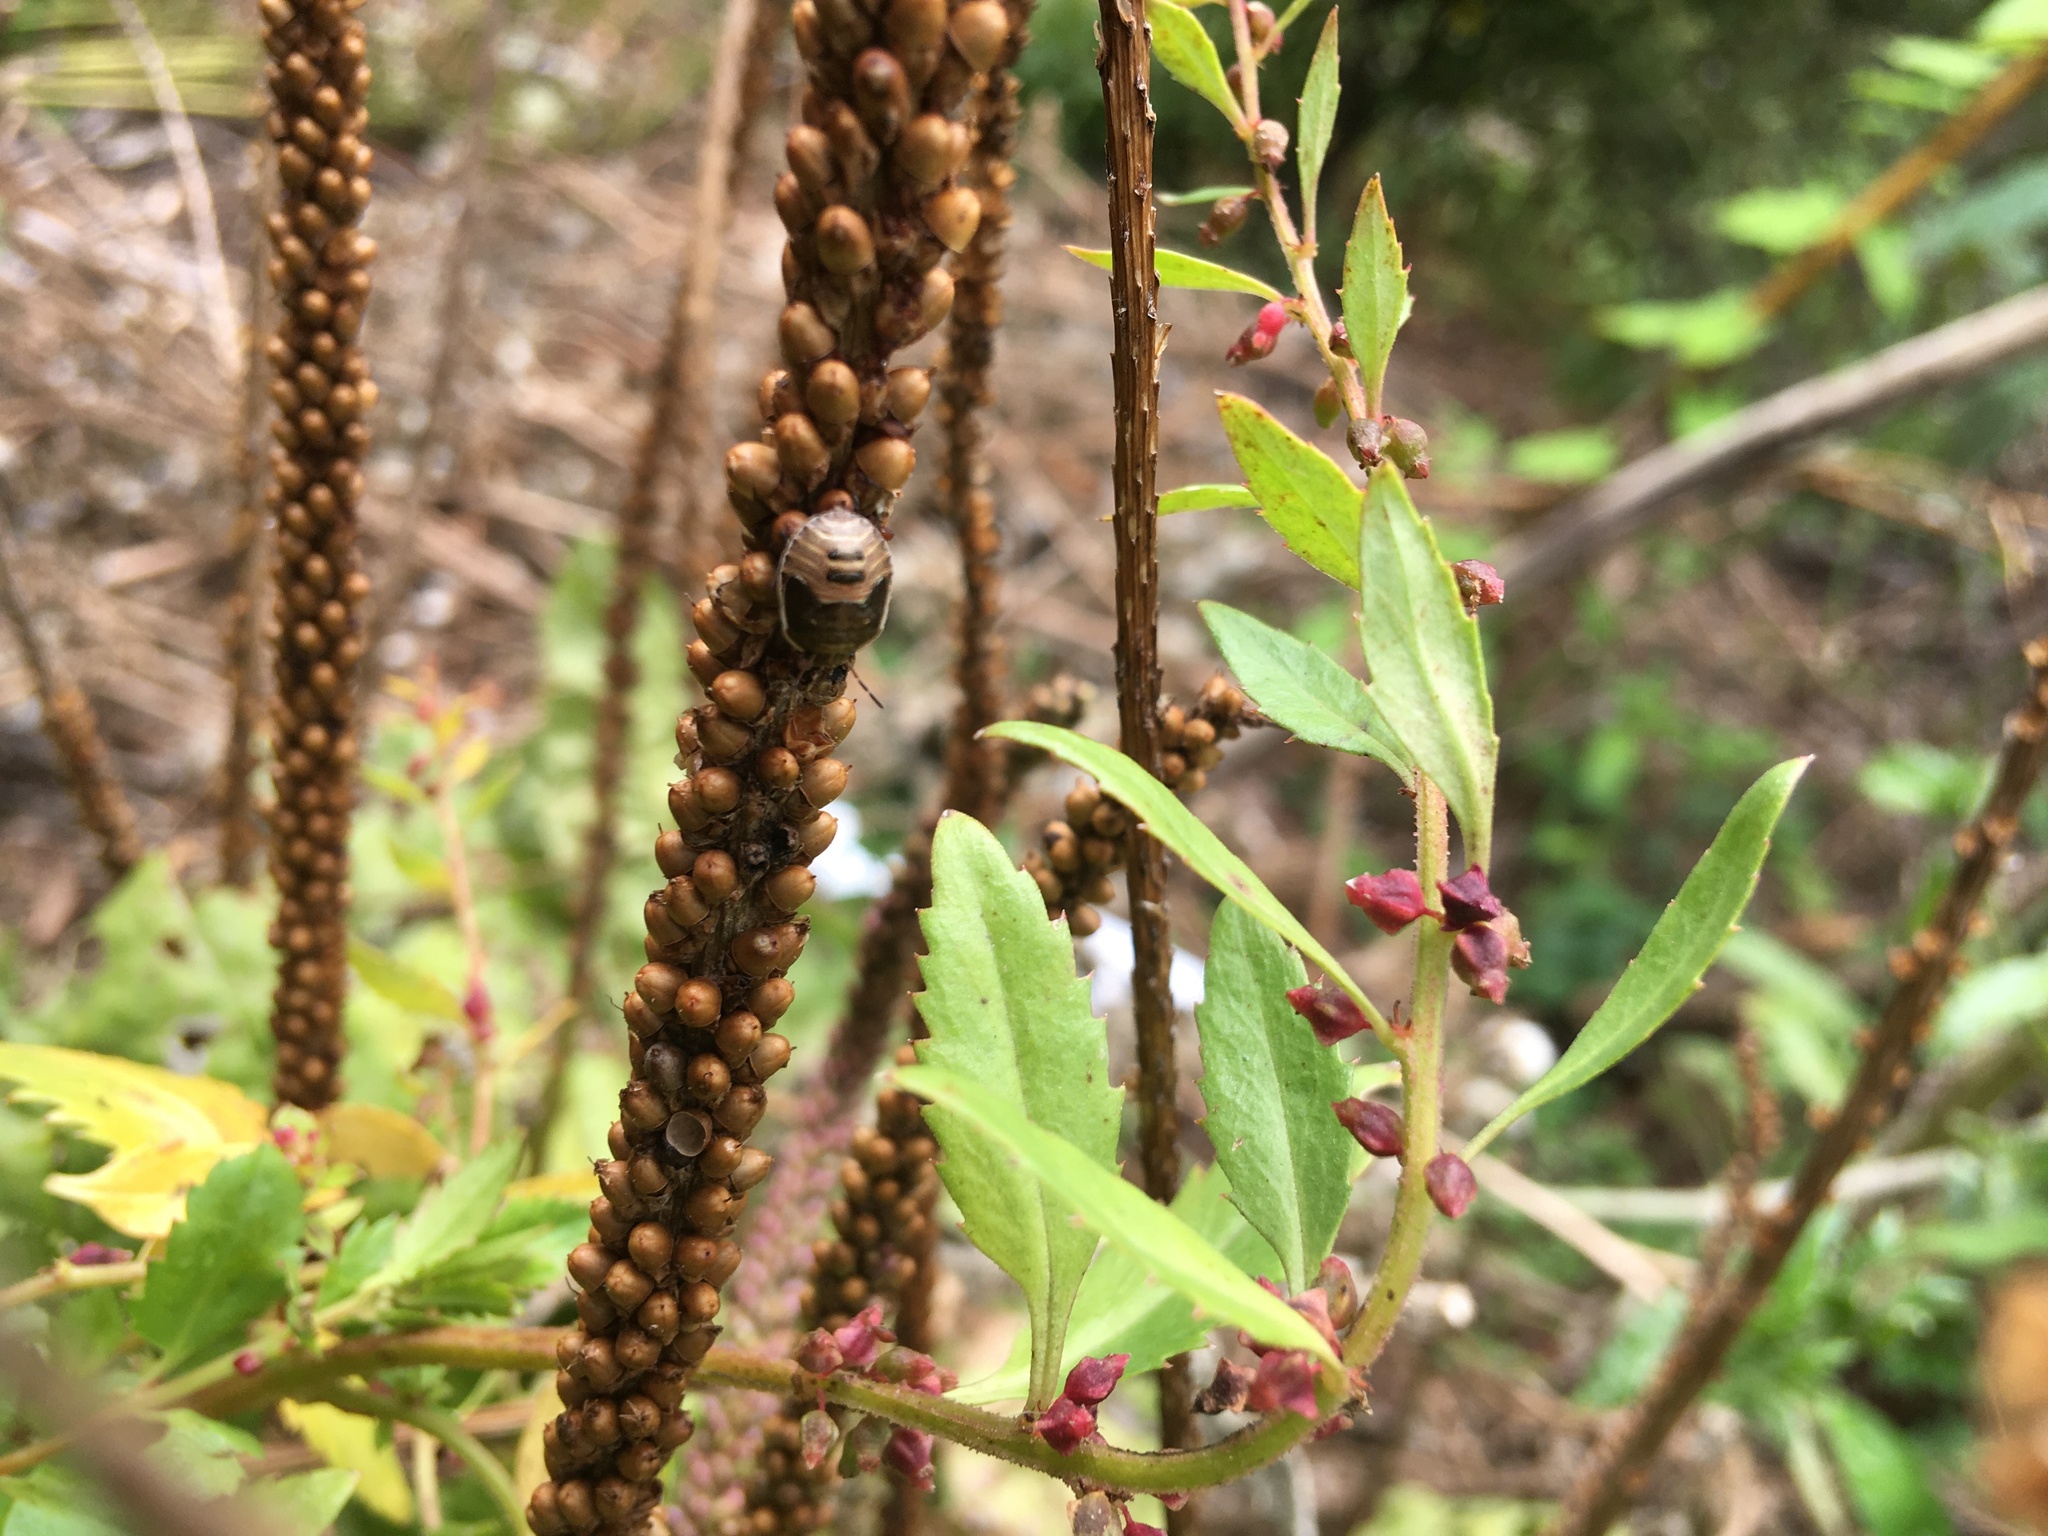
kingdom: Animalia
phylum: Arthropoda
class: Insecta
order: Hemiptera
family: Pentatomidae
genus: Dictyotus
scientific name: Dictyotus caenosus
